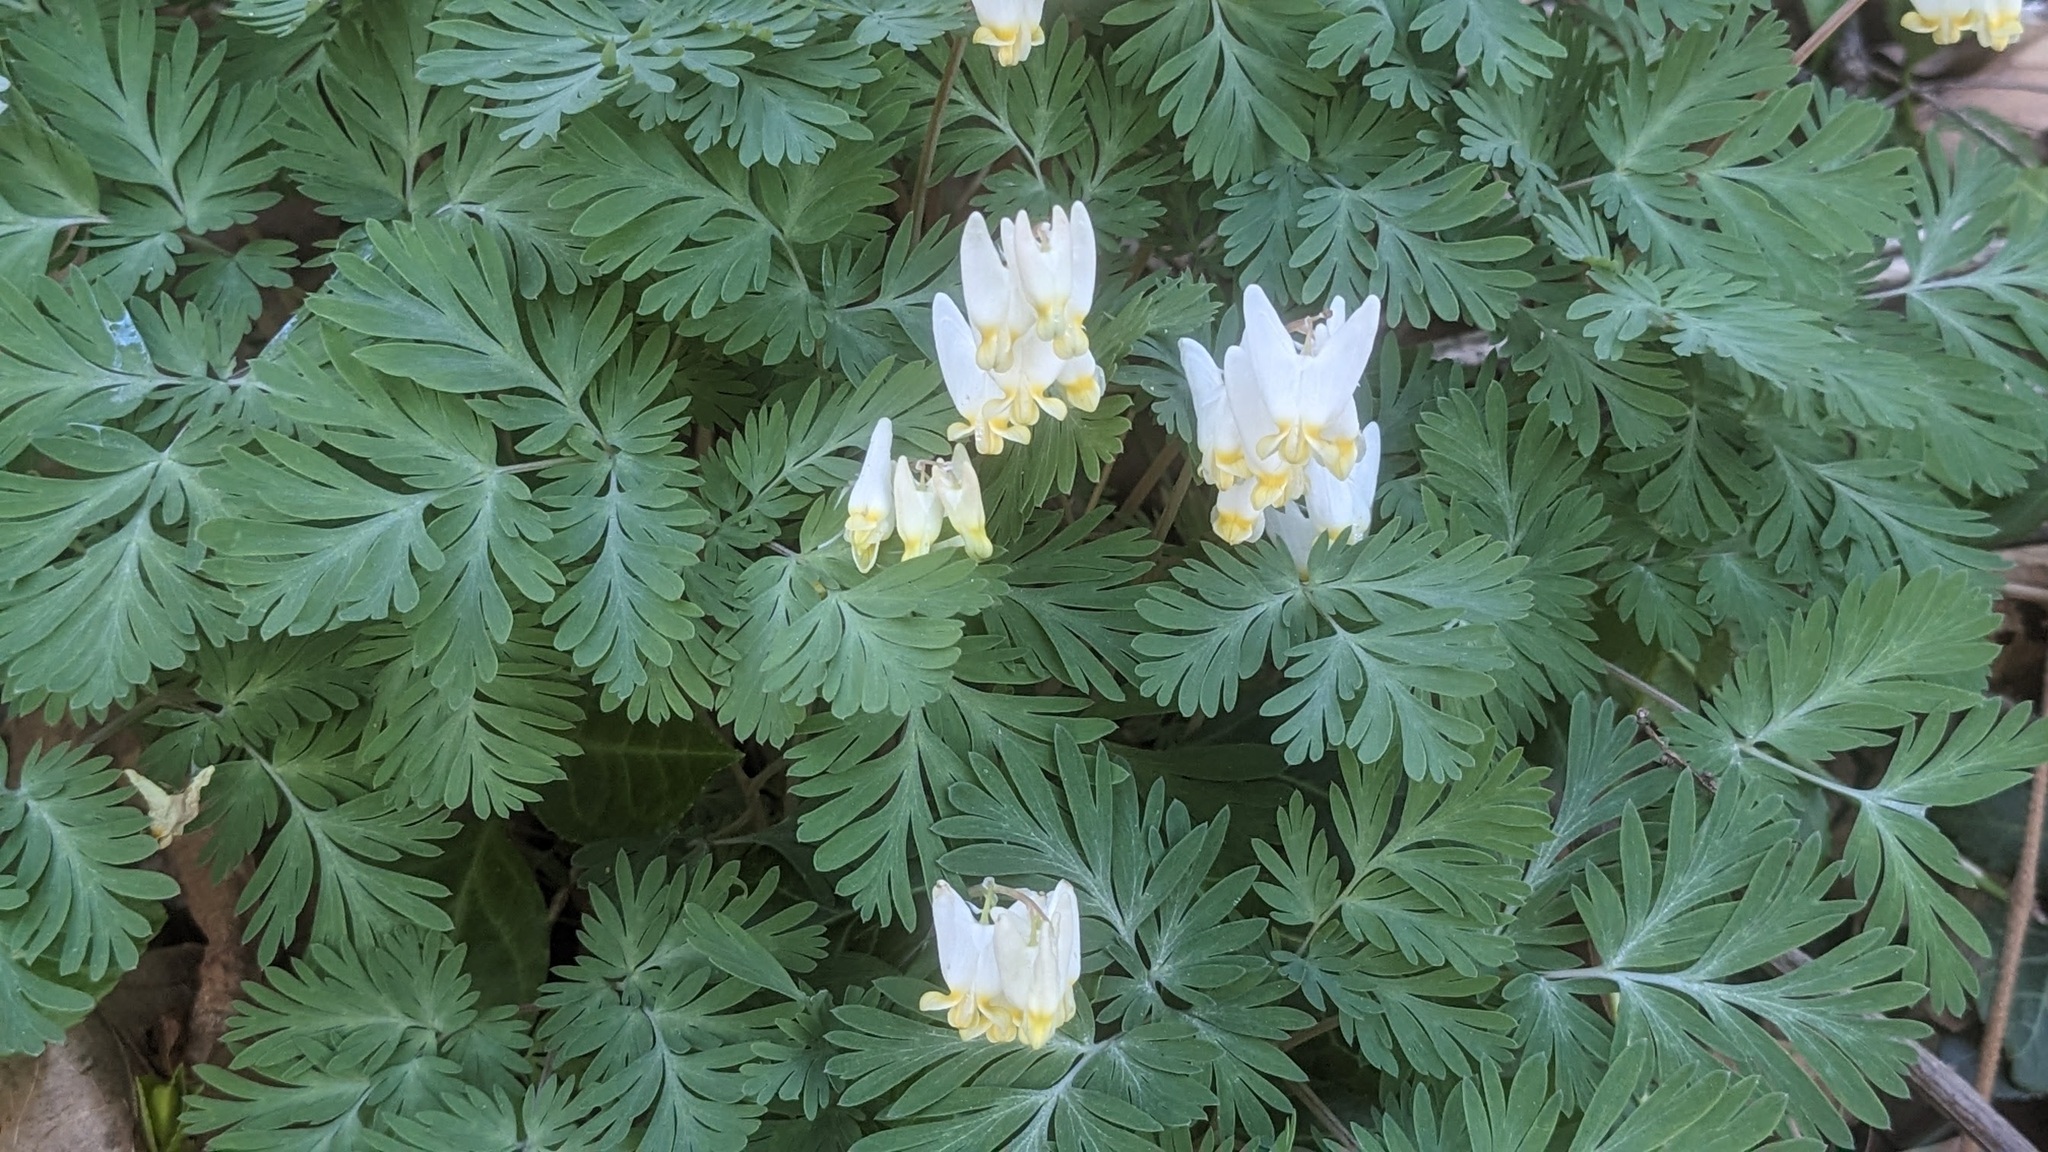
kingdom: Plantae
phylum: Tracheophyta
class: Magnoliopsida
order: Ranunculales
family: Papaveraceae
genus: Dicentra
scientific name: Dicentra cucullaria
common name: Dutchman's breeches
